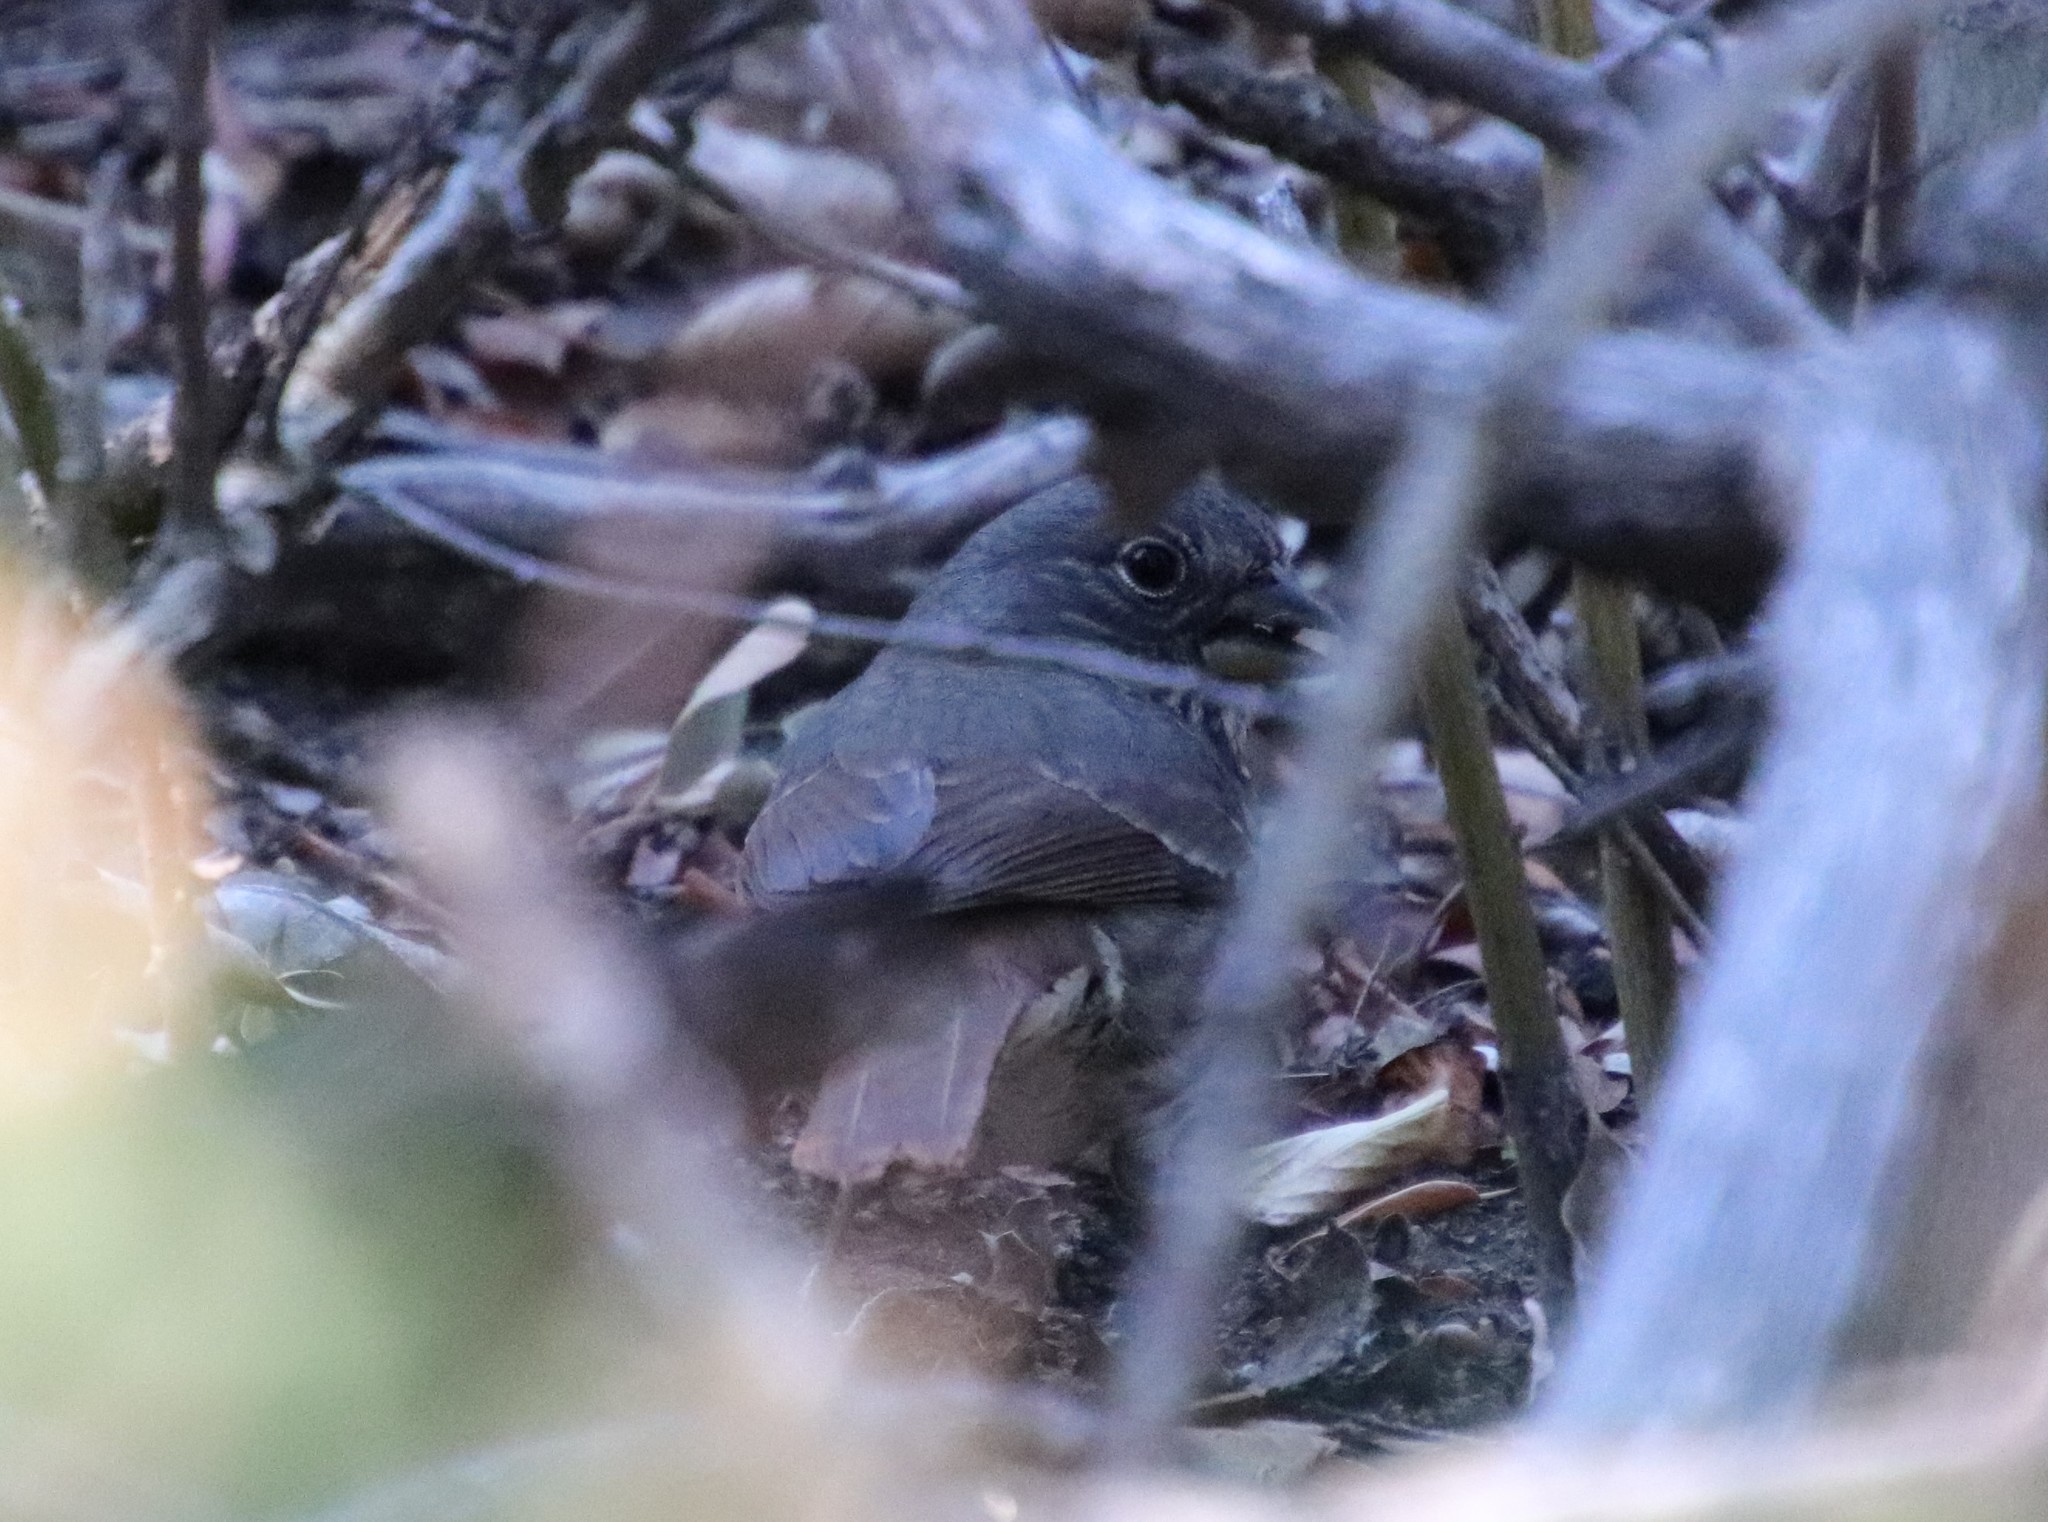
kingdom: Animalia
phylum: Chordata
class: Aves
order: Passeriformes
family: Passerellidae
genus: Passerella
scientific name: Passerella iliaca
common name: Fox sparrow
